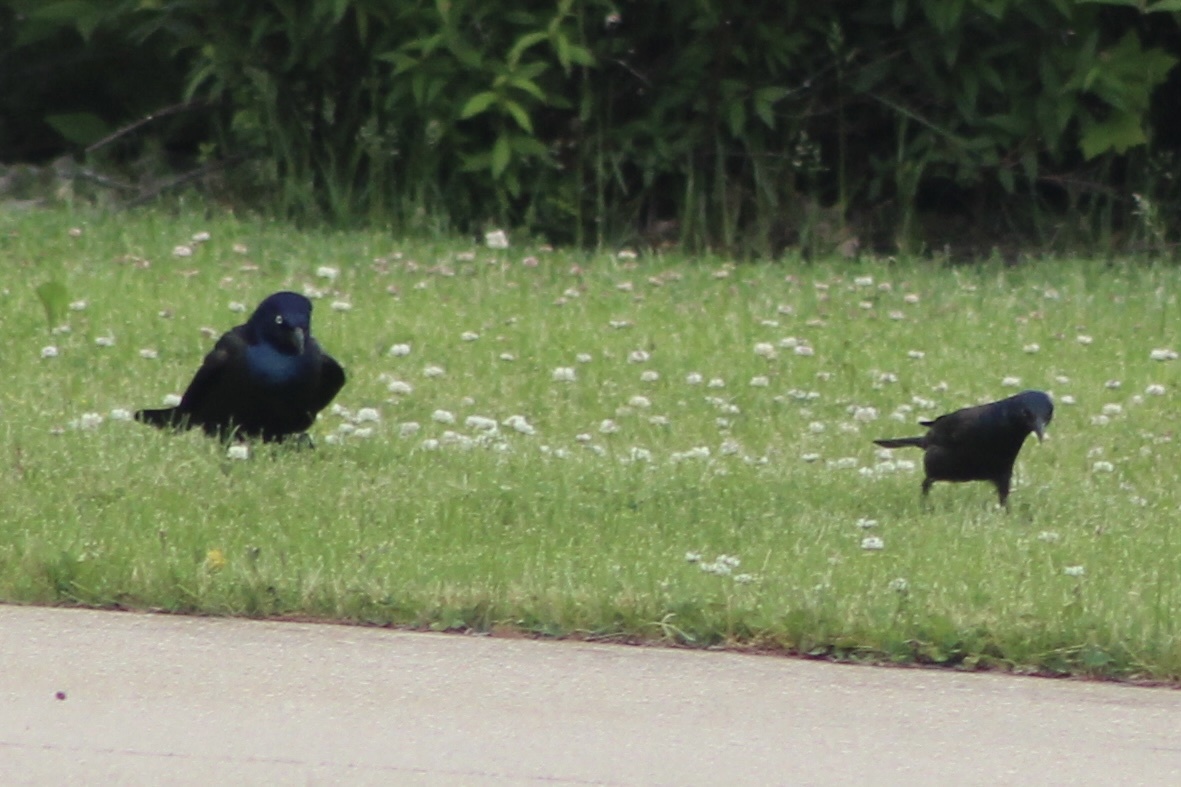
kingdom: Animalia
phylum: Chordata
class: Aves
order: Passeriformes
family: Icteridae
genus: Quiscalus
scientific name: Quiscalus quiscula
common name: Common grackle
